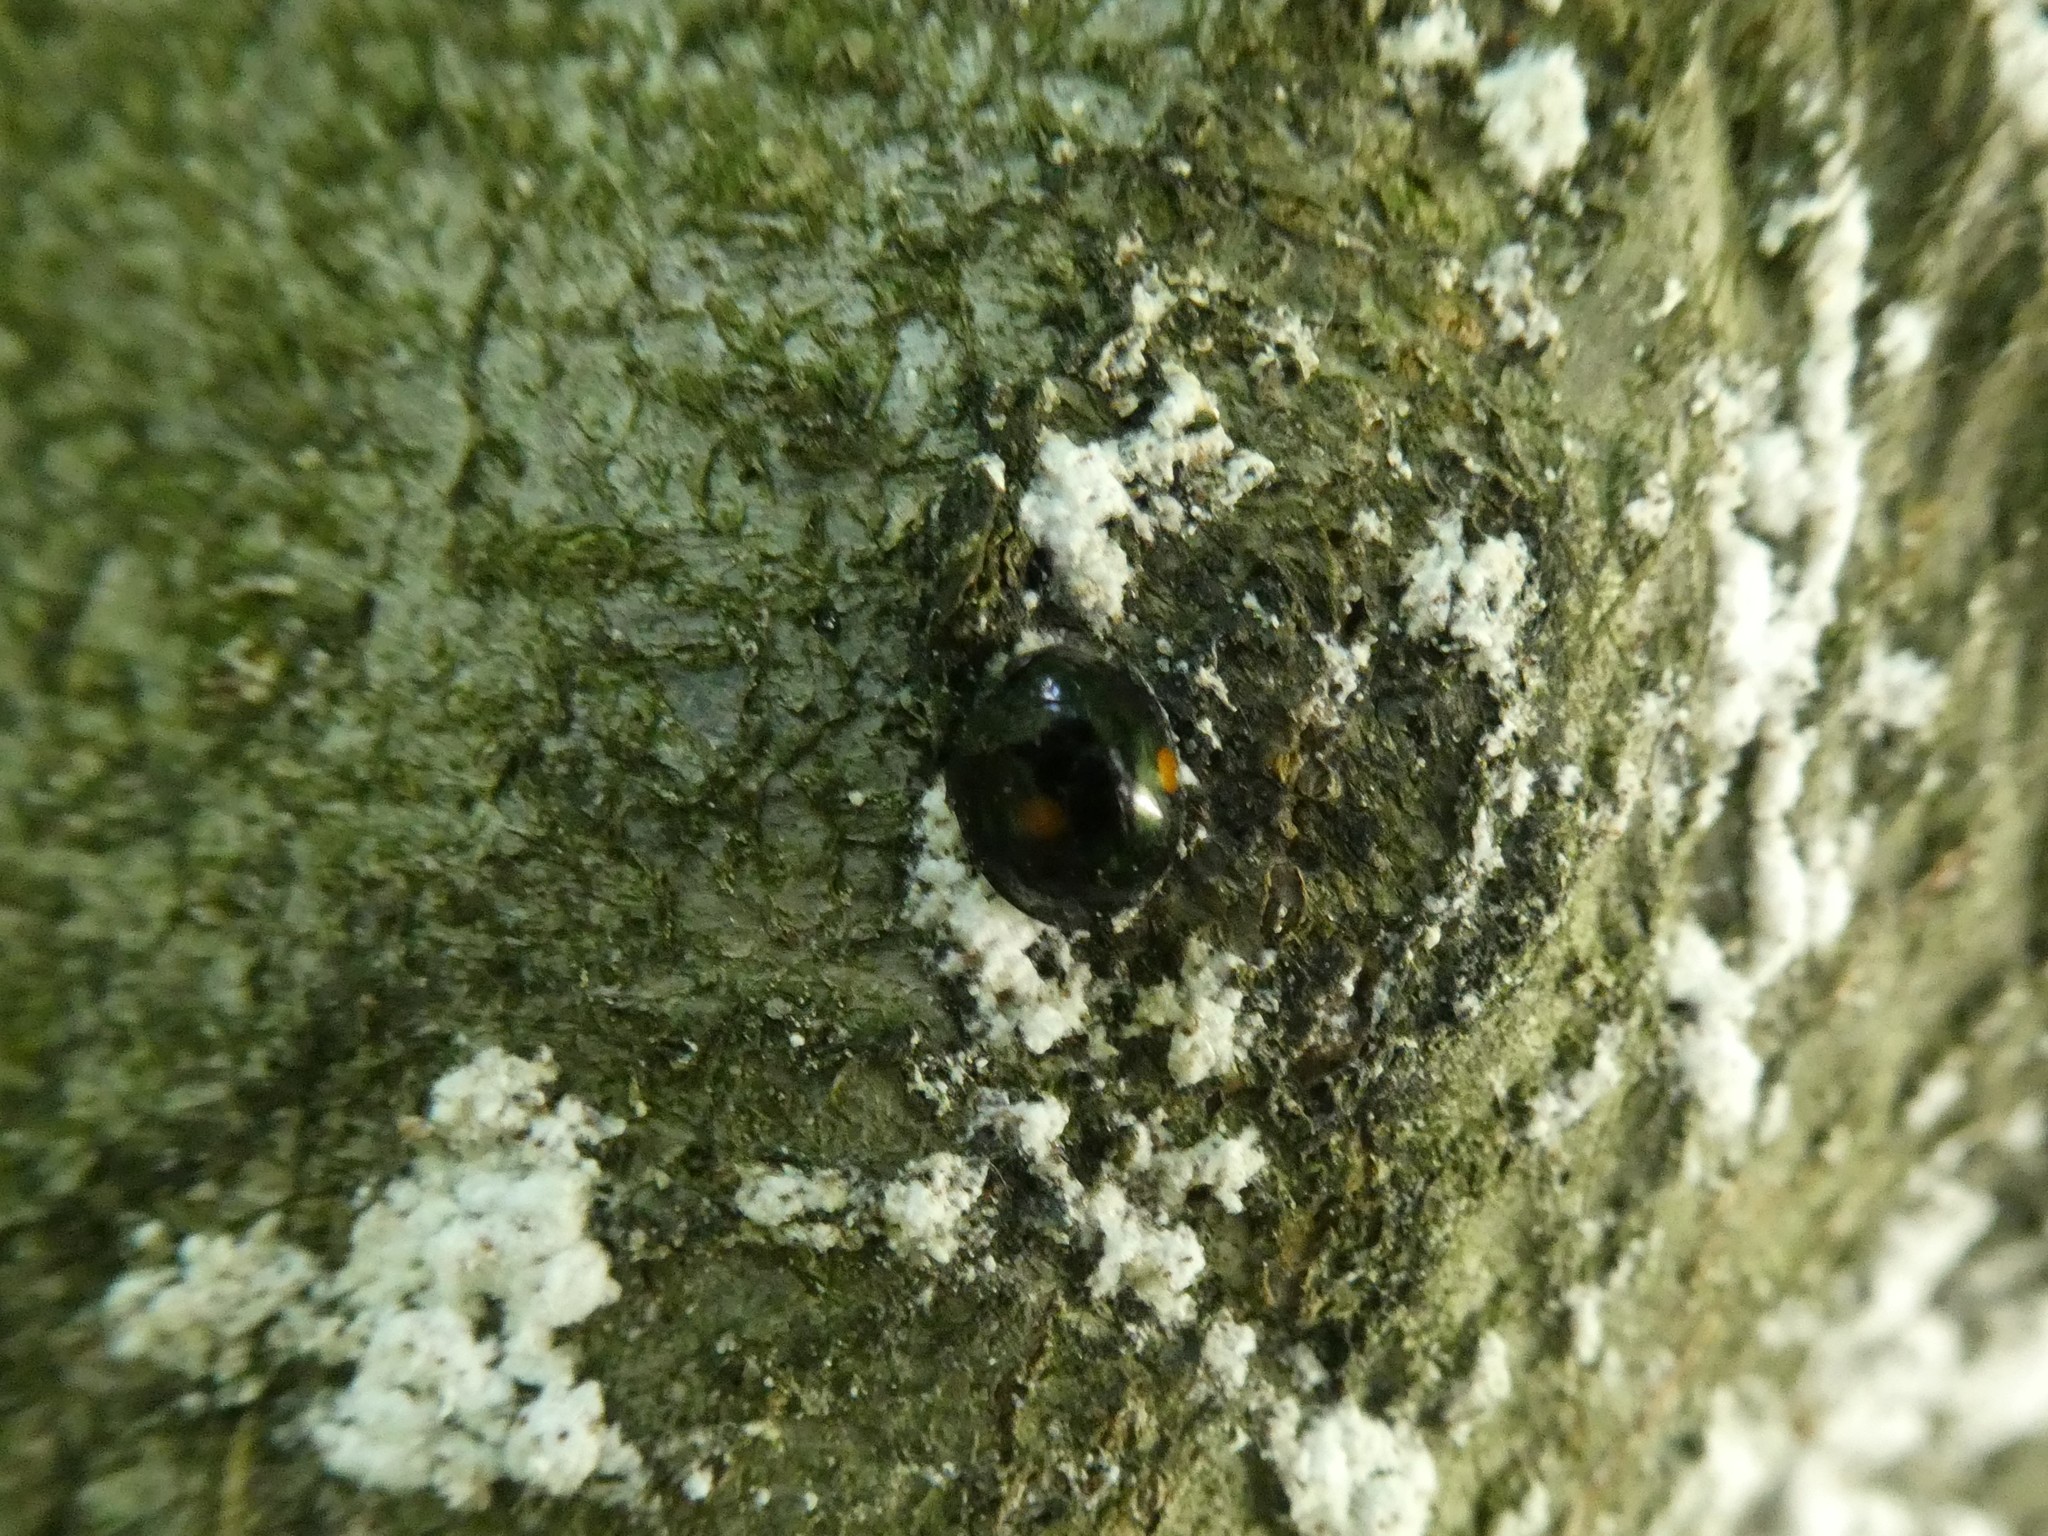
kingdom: Animalia
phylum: Arthropoda
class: Insecta
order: Coleoptera
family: Coccinellidae
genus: Chilocorus
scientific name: Chilocorus stigma
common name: Twicestabbed lady beetle
